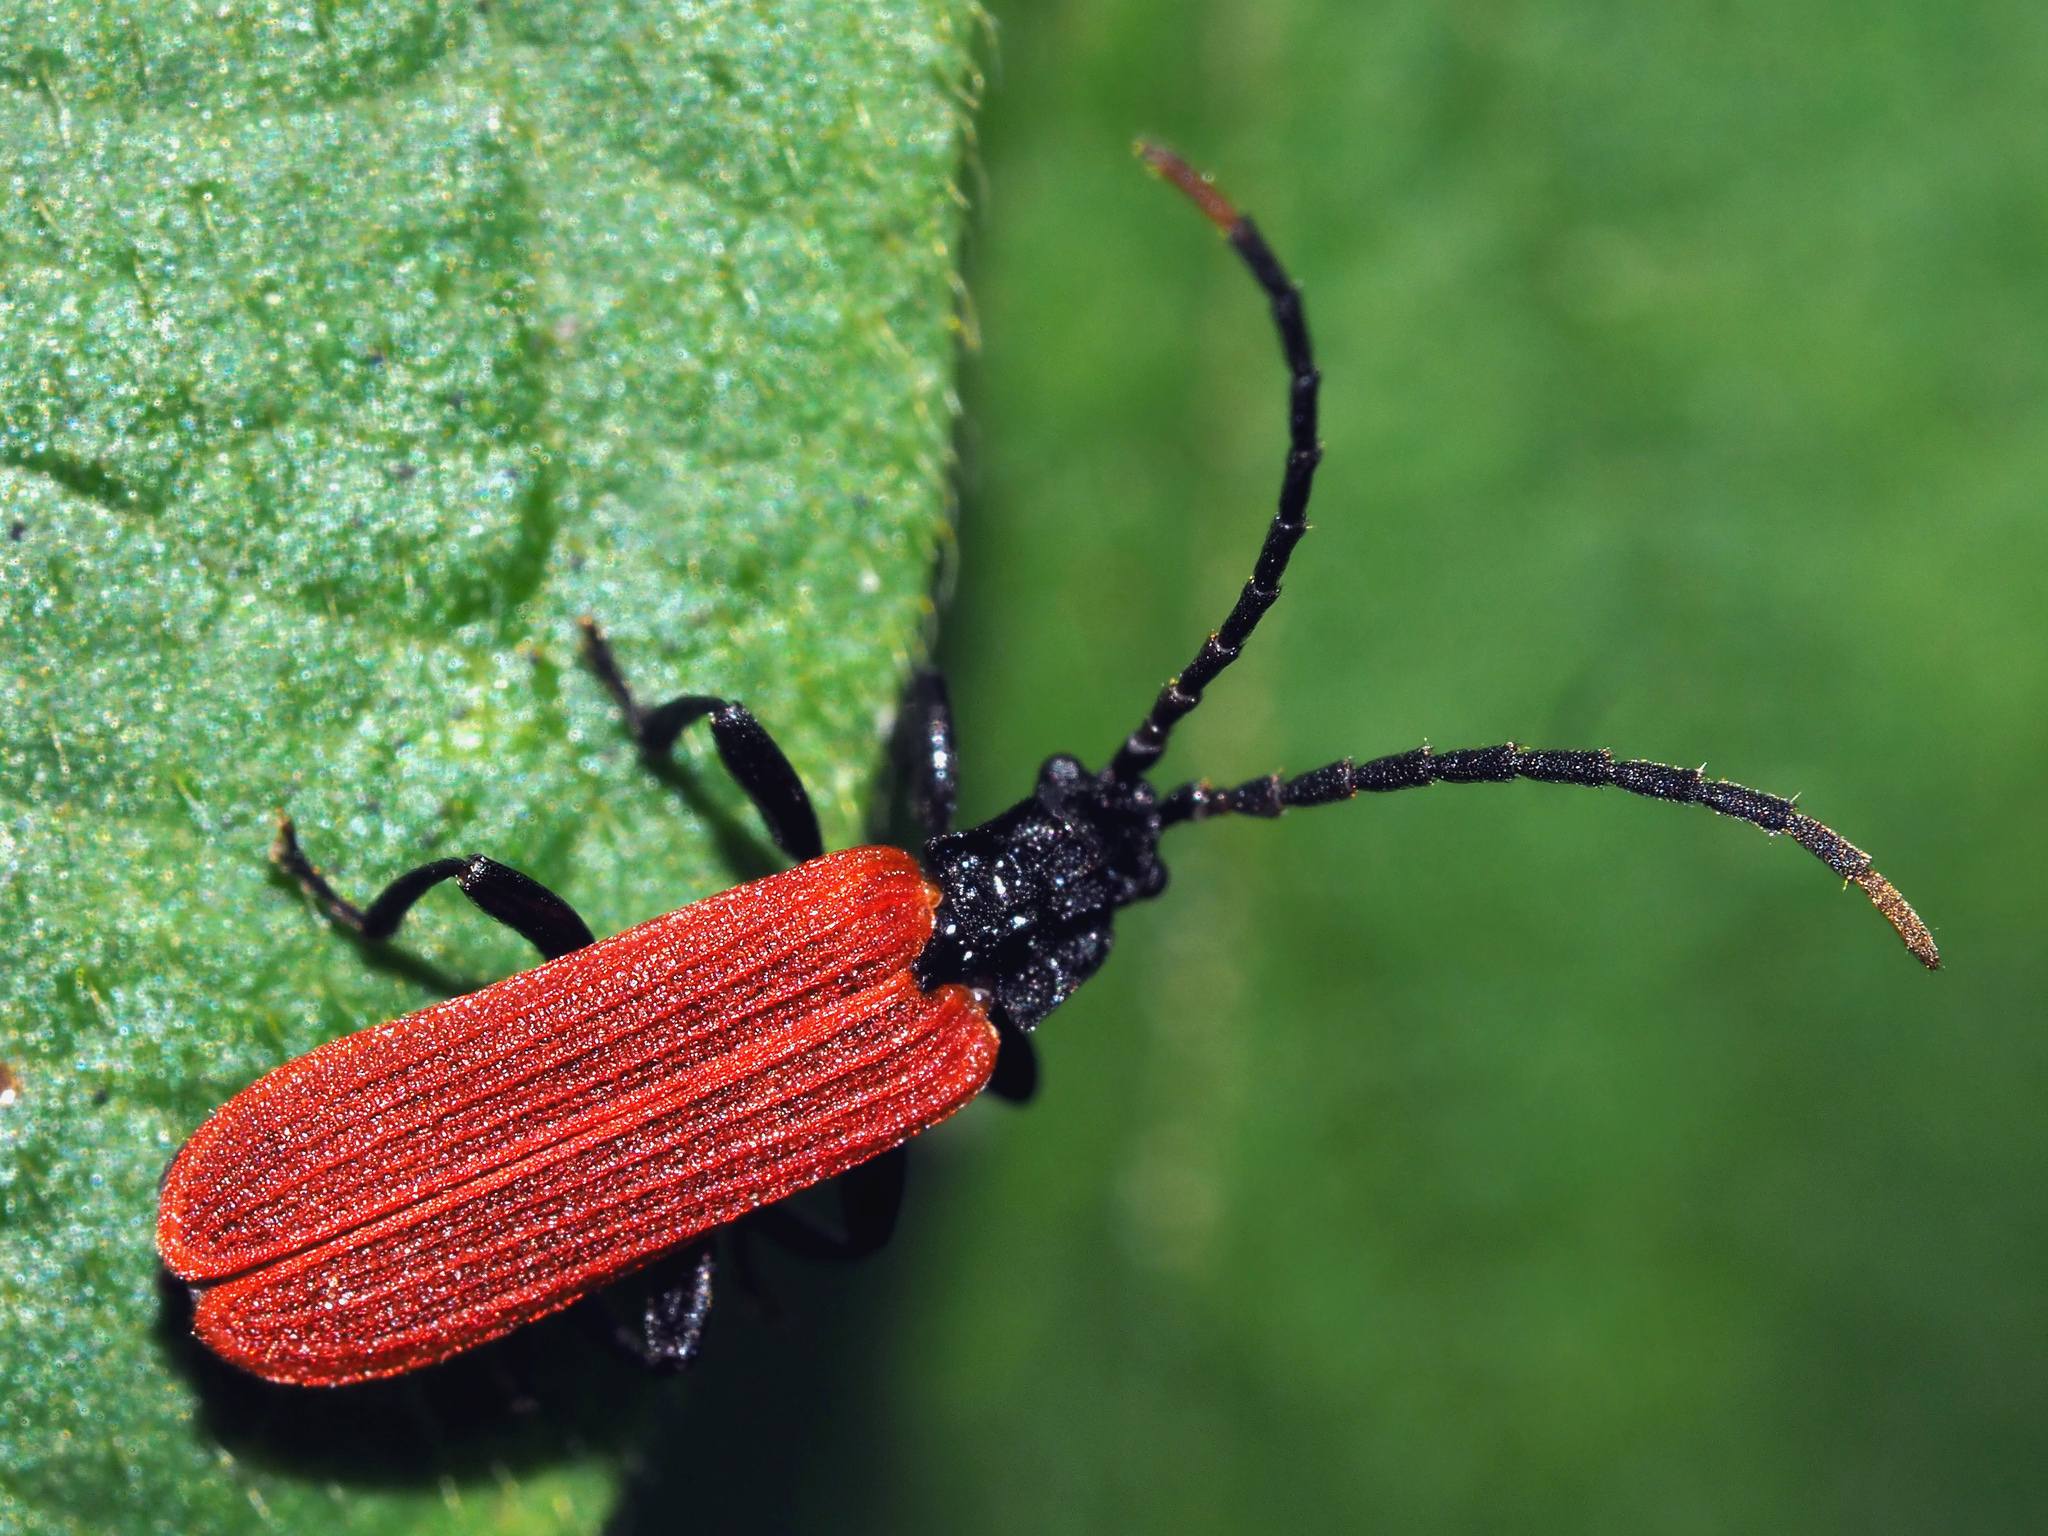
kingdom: Animalia
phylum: Arthropoda
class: Insecta
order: Coleoptera
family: Lycidae
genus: Platycis
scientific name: Platycis minutus
